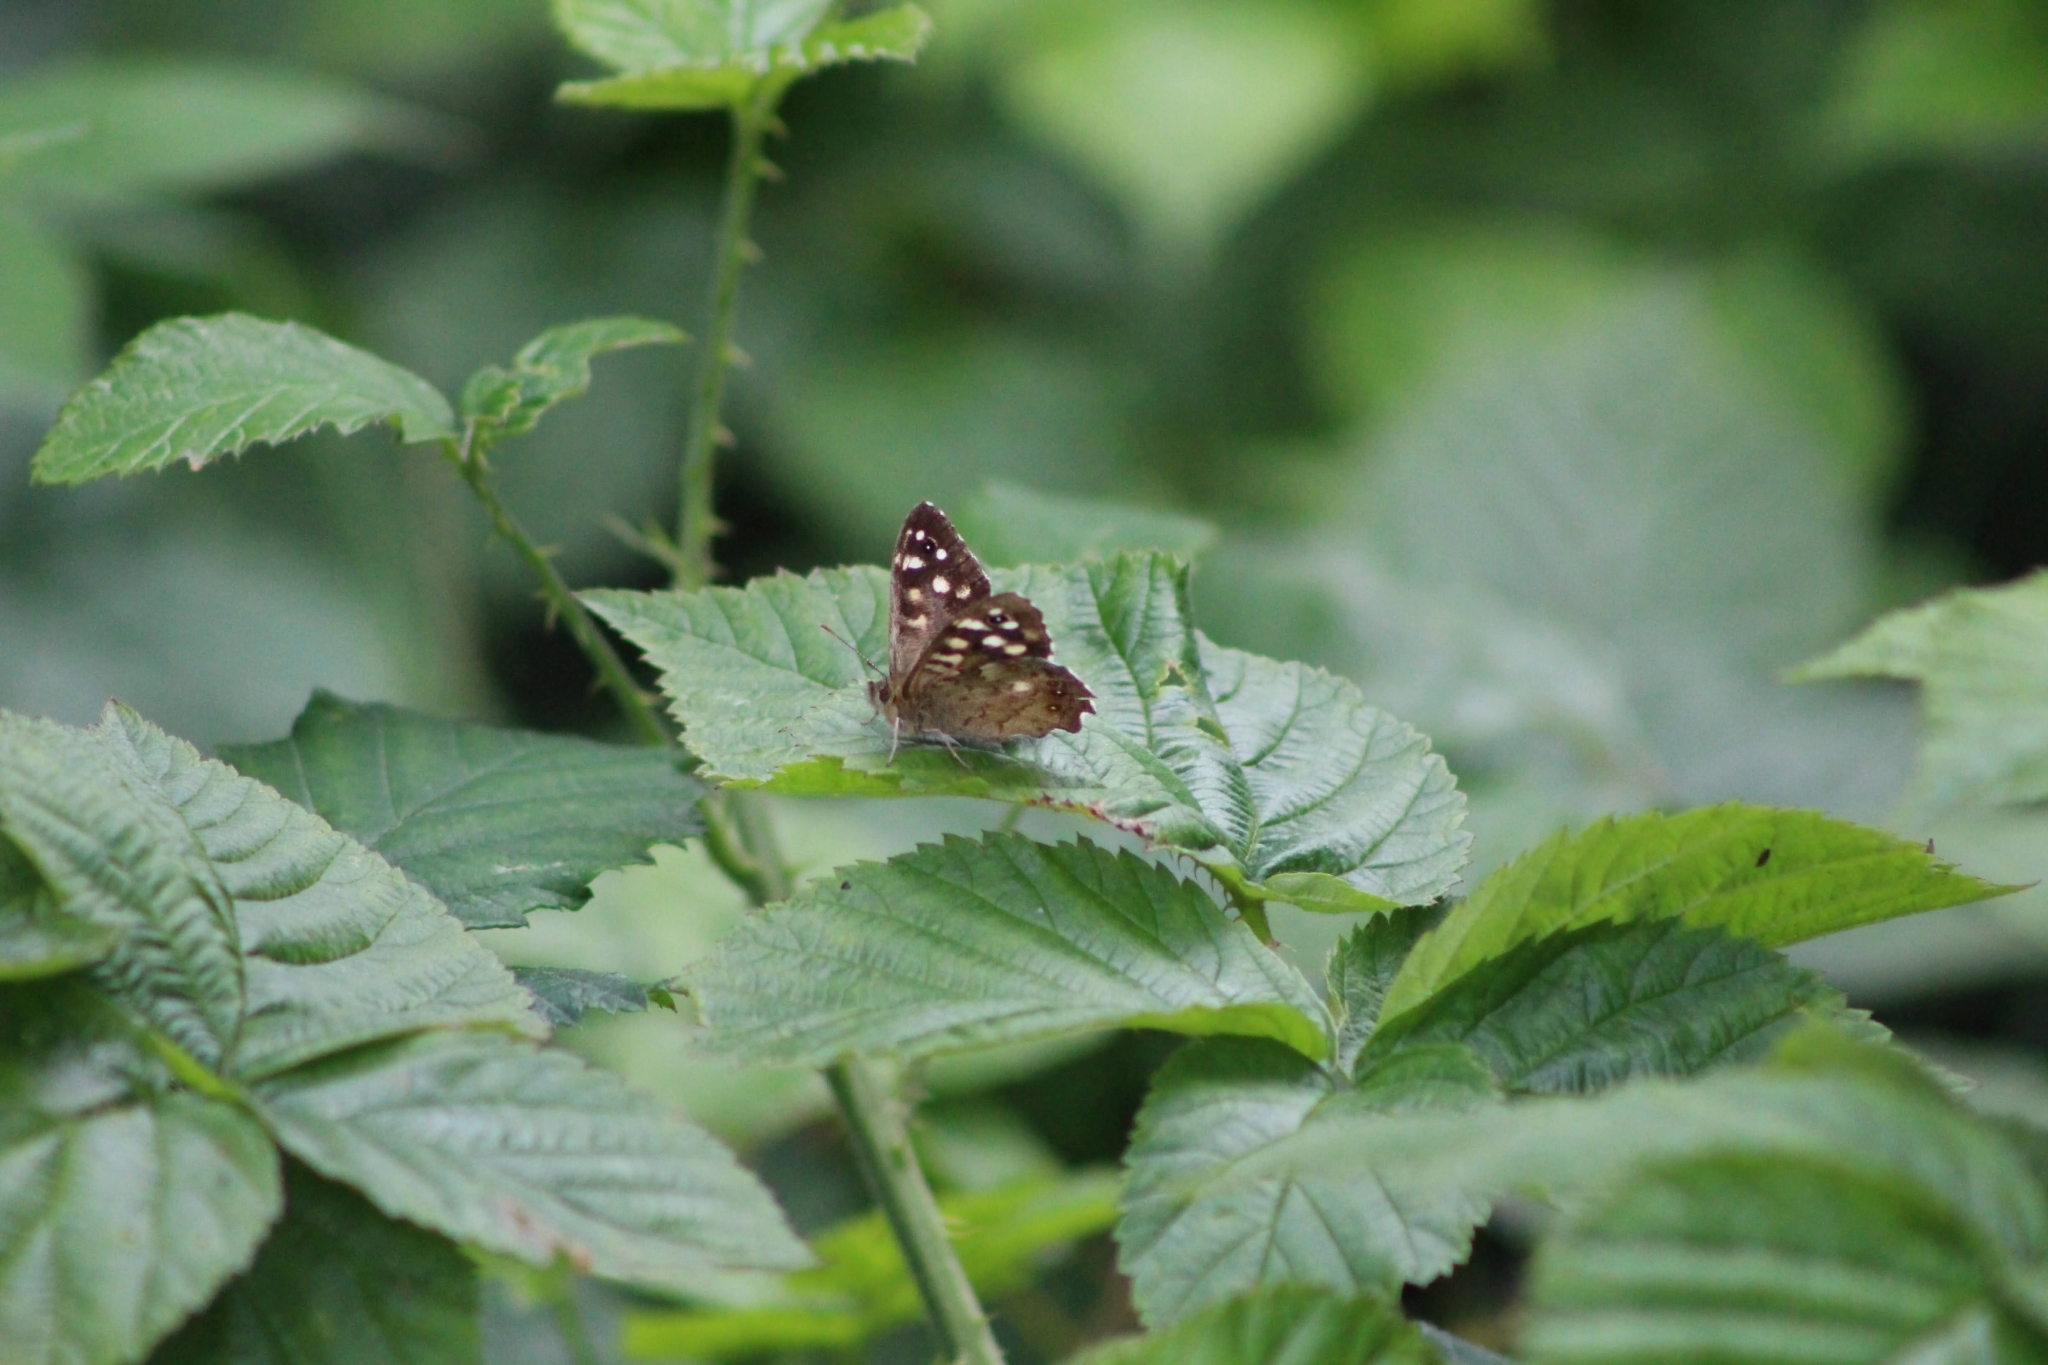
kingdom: Animalia
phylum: Arthropoda
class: Insecta
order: Lepidoptera
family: Nymphalidae
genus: Pararge
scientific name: Pararge aegeria
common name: Speckled wood
